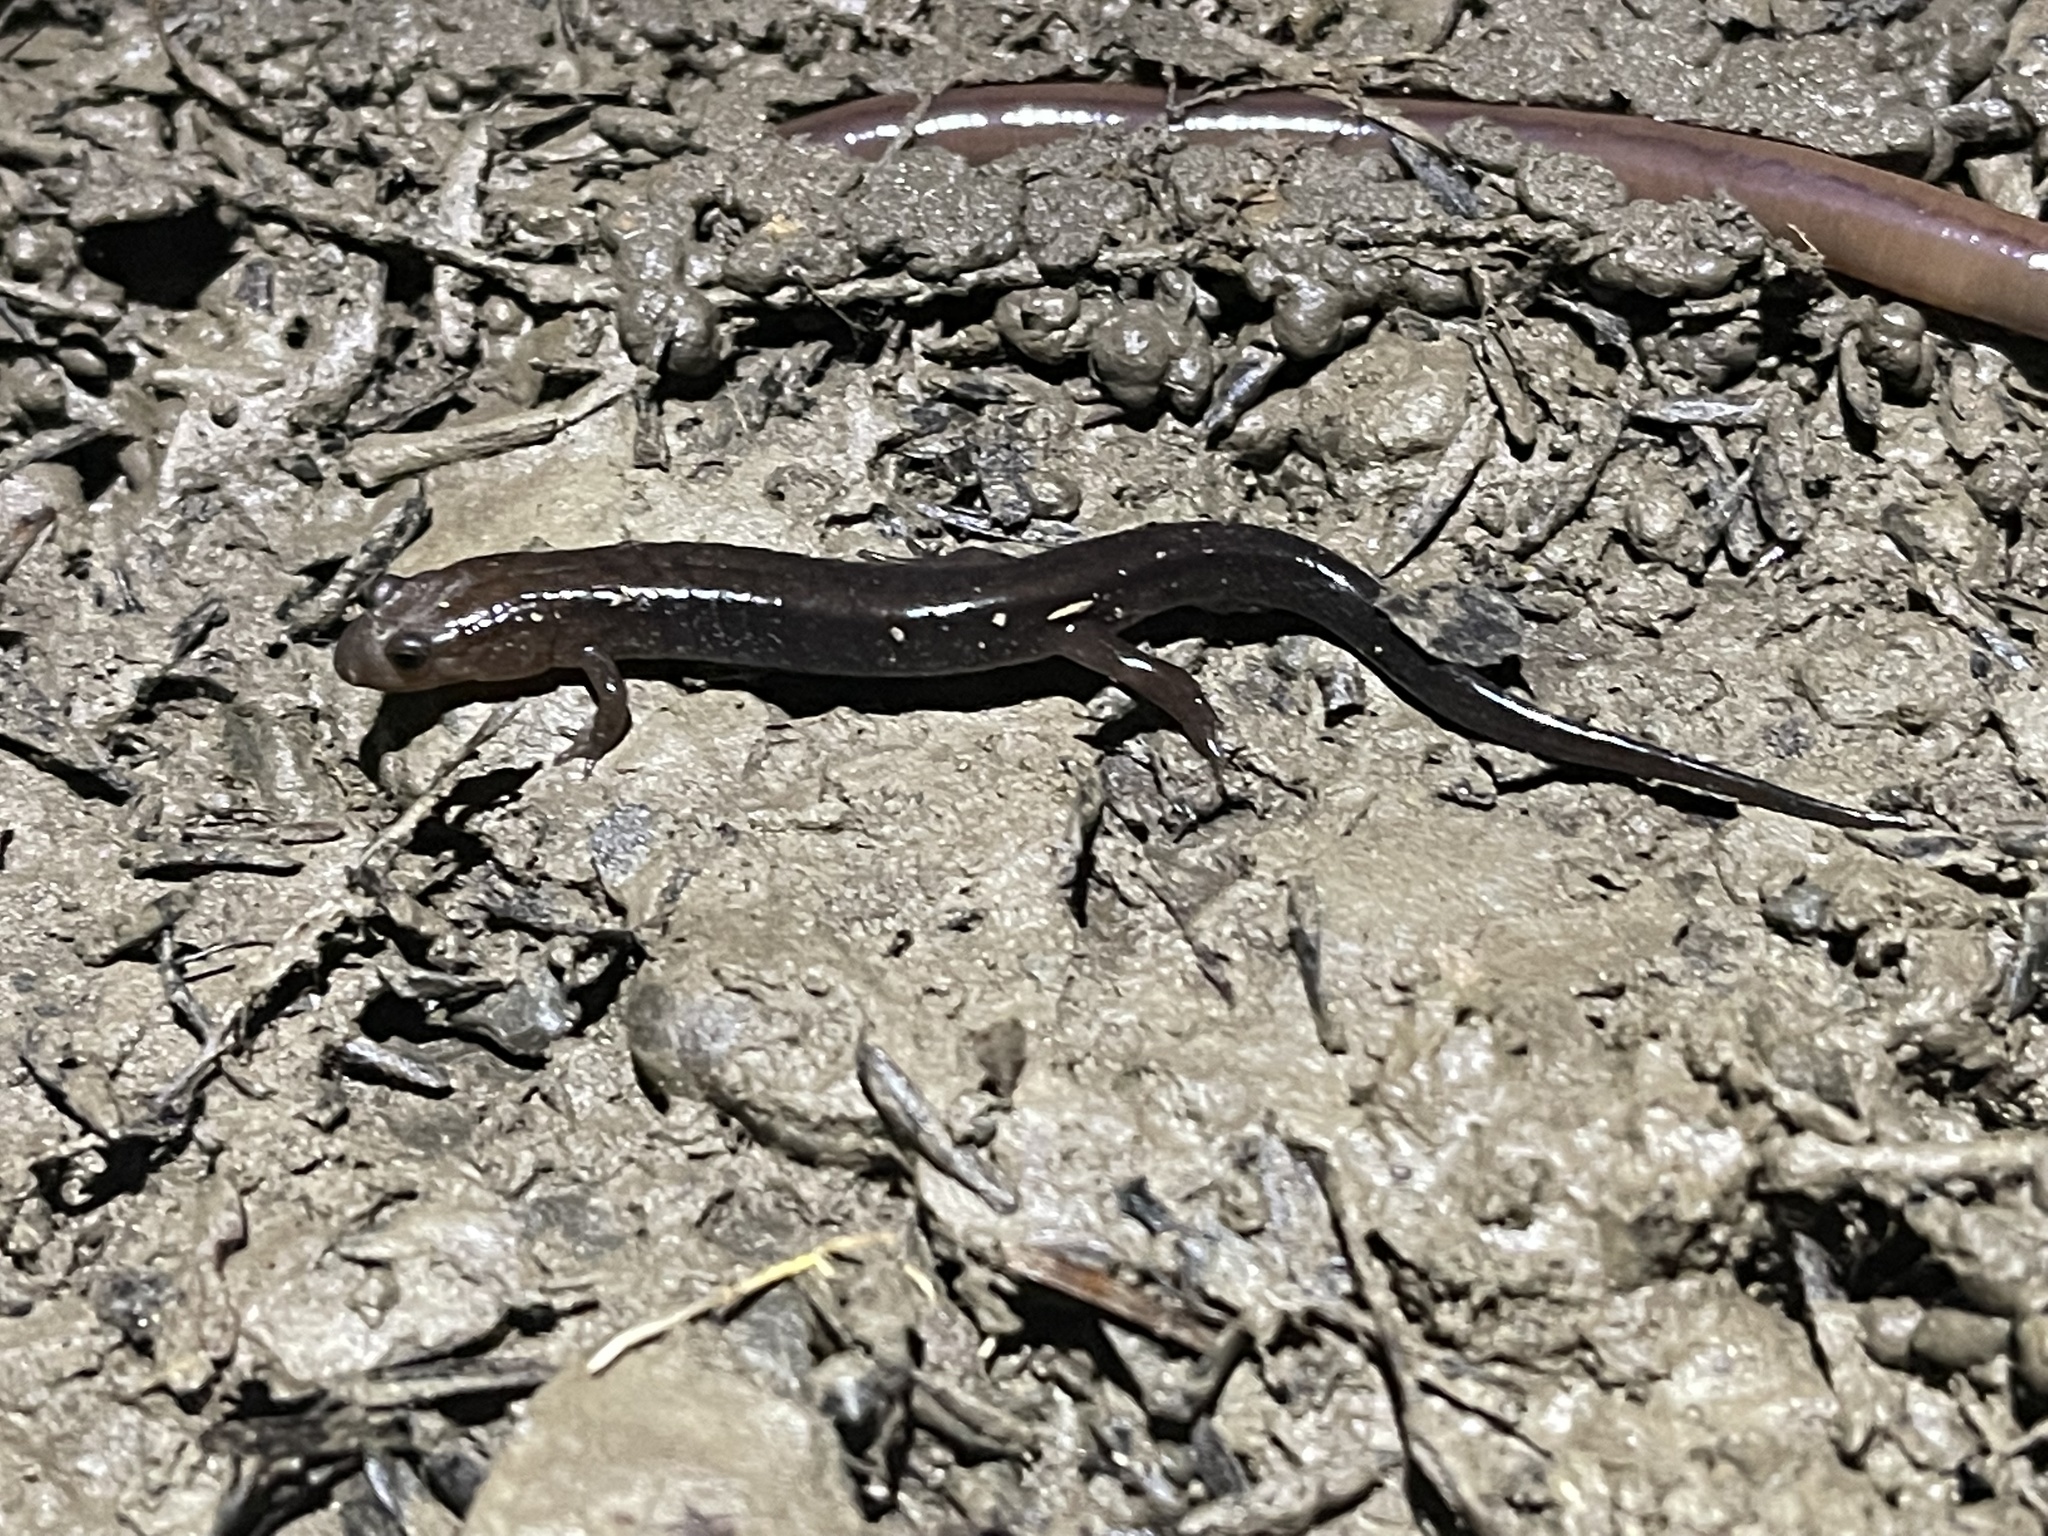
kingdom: Animalia
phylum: Chordata
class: Amphibia
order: Caudata
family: Plethodontidae
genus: Desmognathus
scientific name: Desmognathus ochrophaeus
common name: Allegheny mountain dusky salamander
